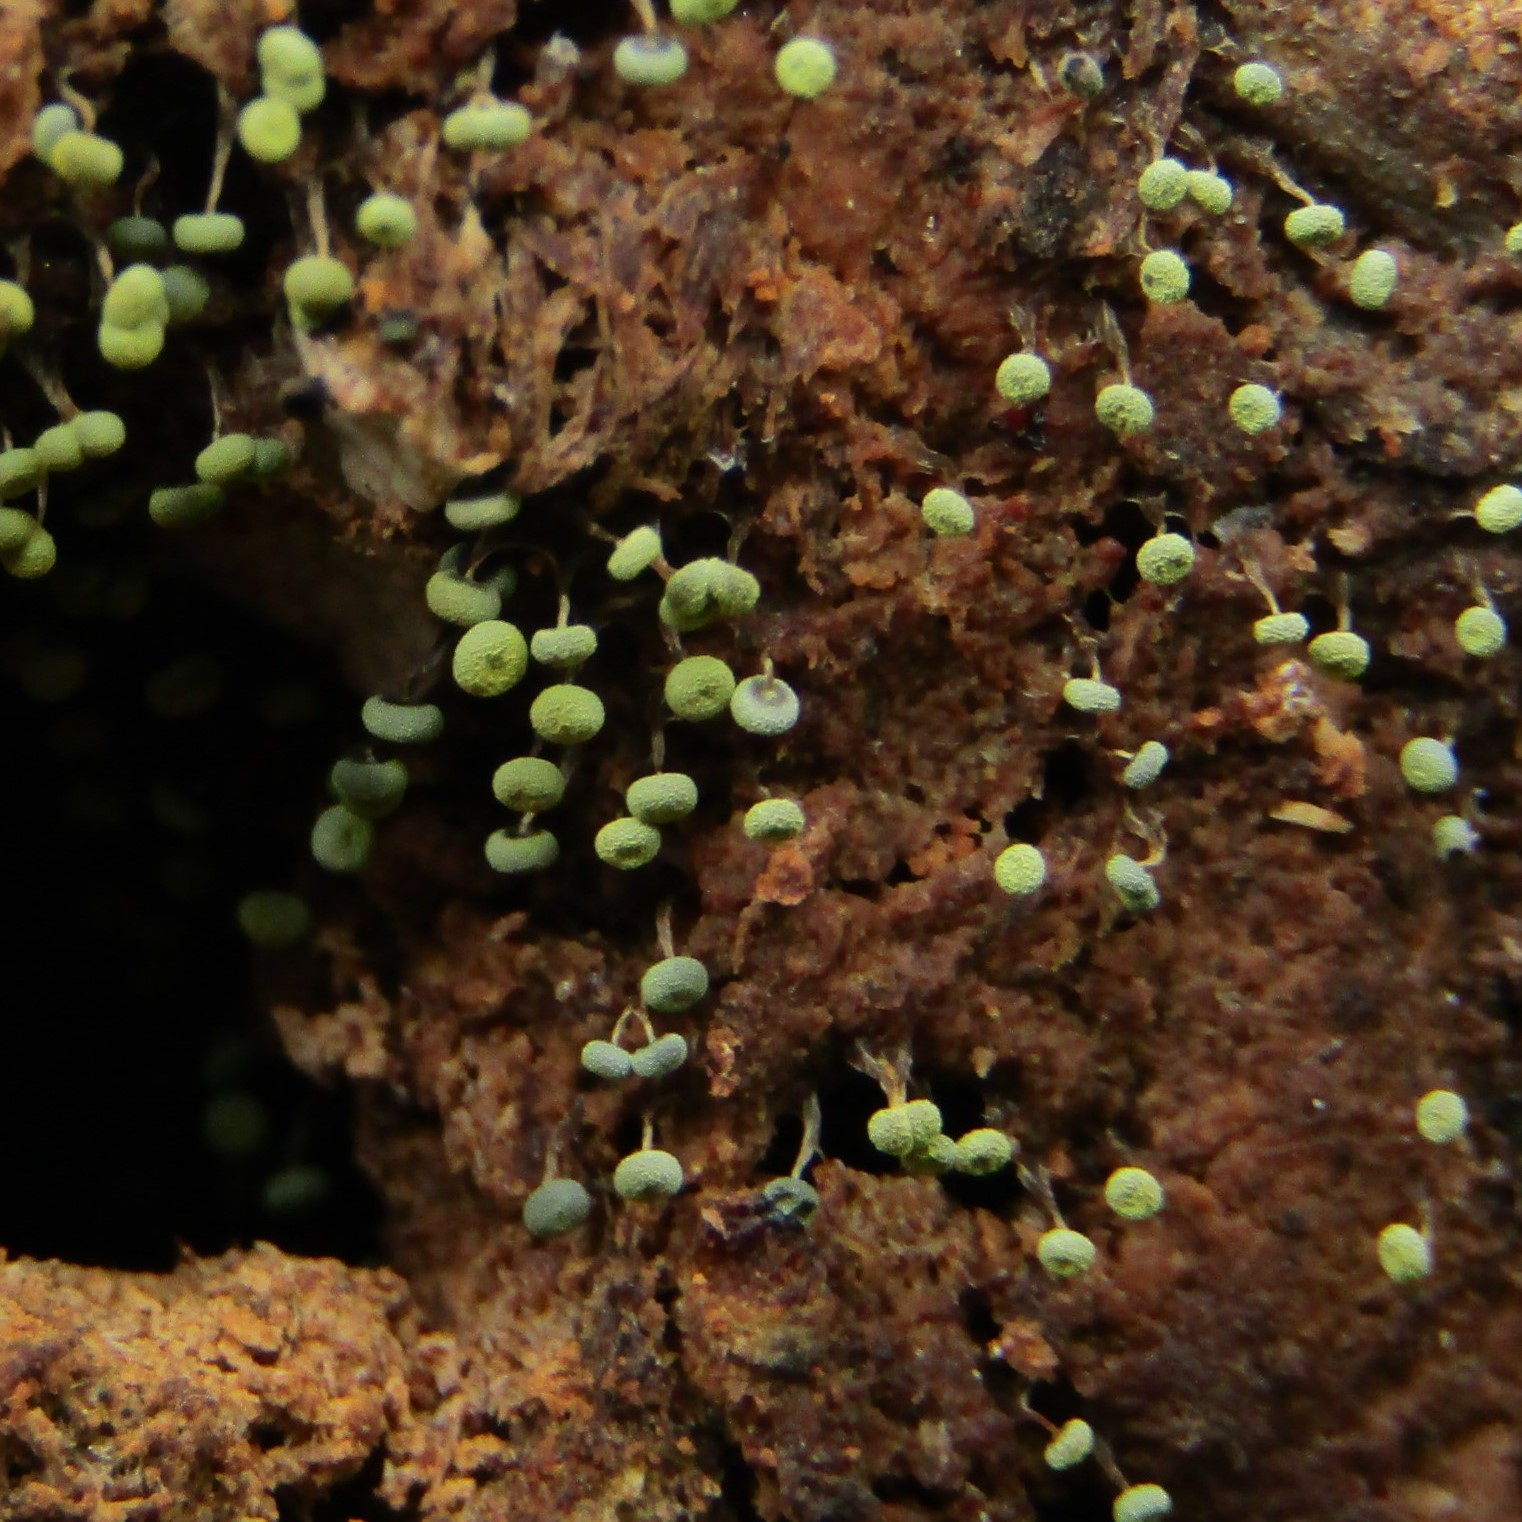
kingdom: Protozoa
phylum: Mycetozoa
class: Myxomycetes
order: Physarales
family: Physaraceae
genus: Physarum
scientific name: Physarum viride
